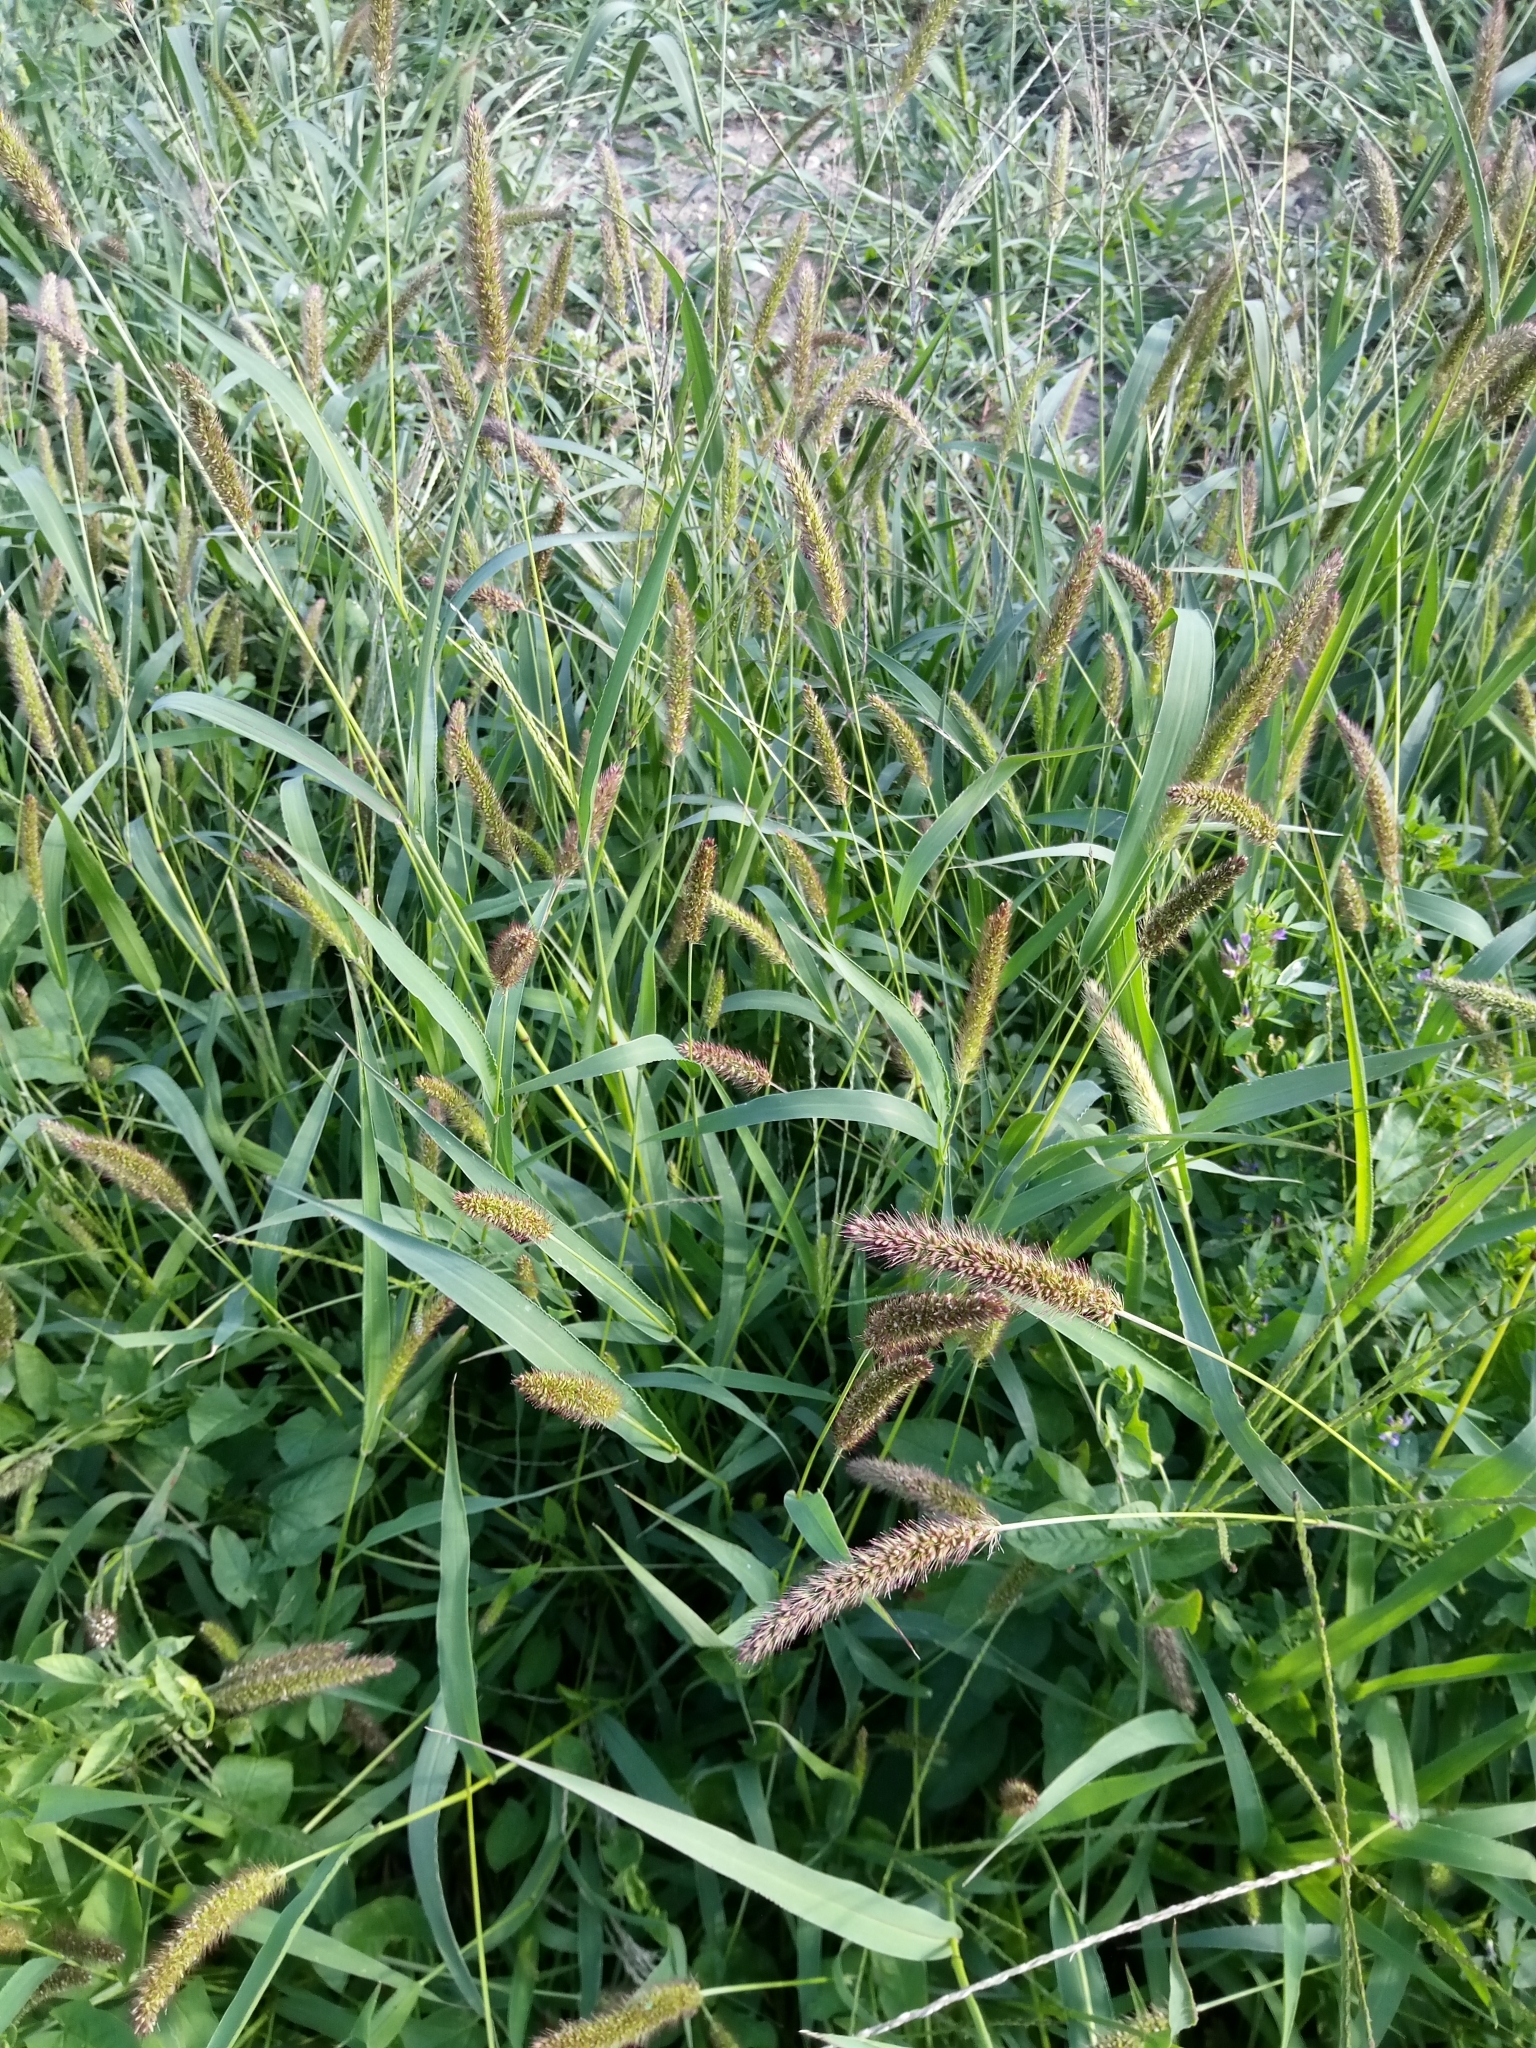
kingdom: Plantae
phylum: Tracheophyta
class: Liliopsida
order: Poales
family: Poaceae
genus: Setaria
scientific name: Setaria viridis
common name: Green bristlegrass
